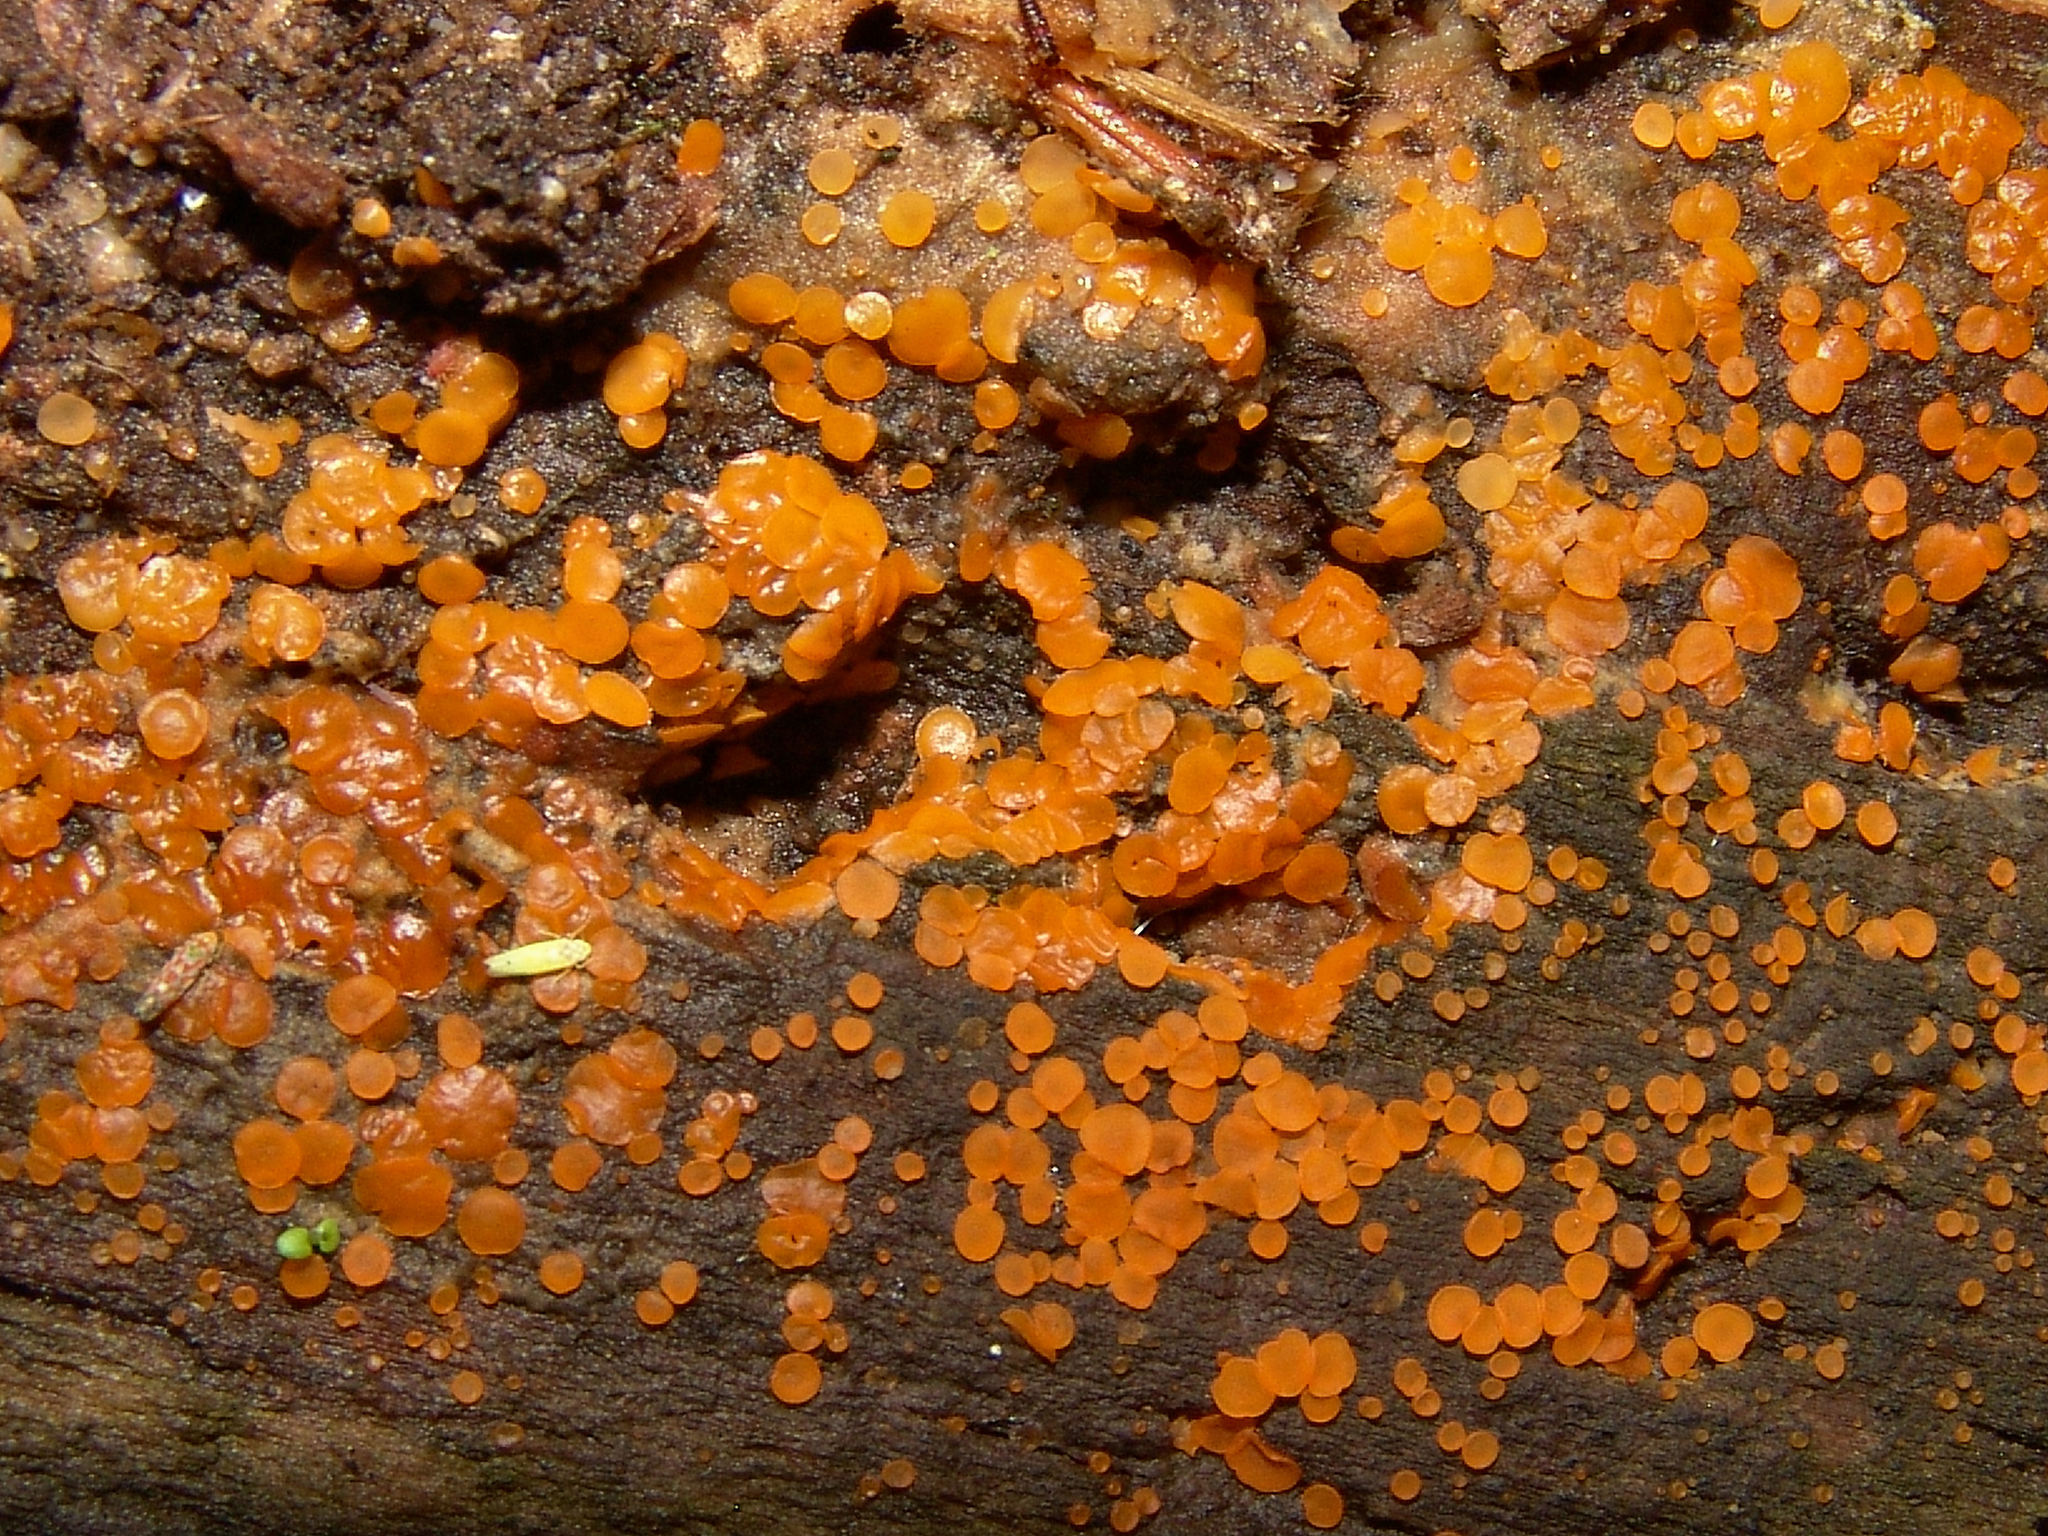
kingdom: Fungi
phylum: Ascomycota
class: Orbiliomycetes
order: Orbiliales
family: Orbiliaceae
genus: Orbilia
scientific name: Orbilia
